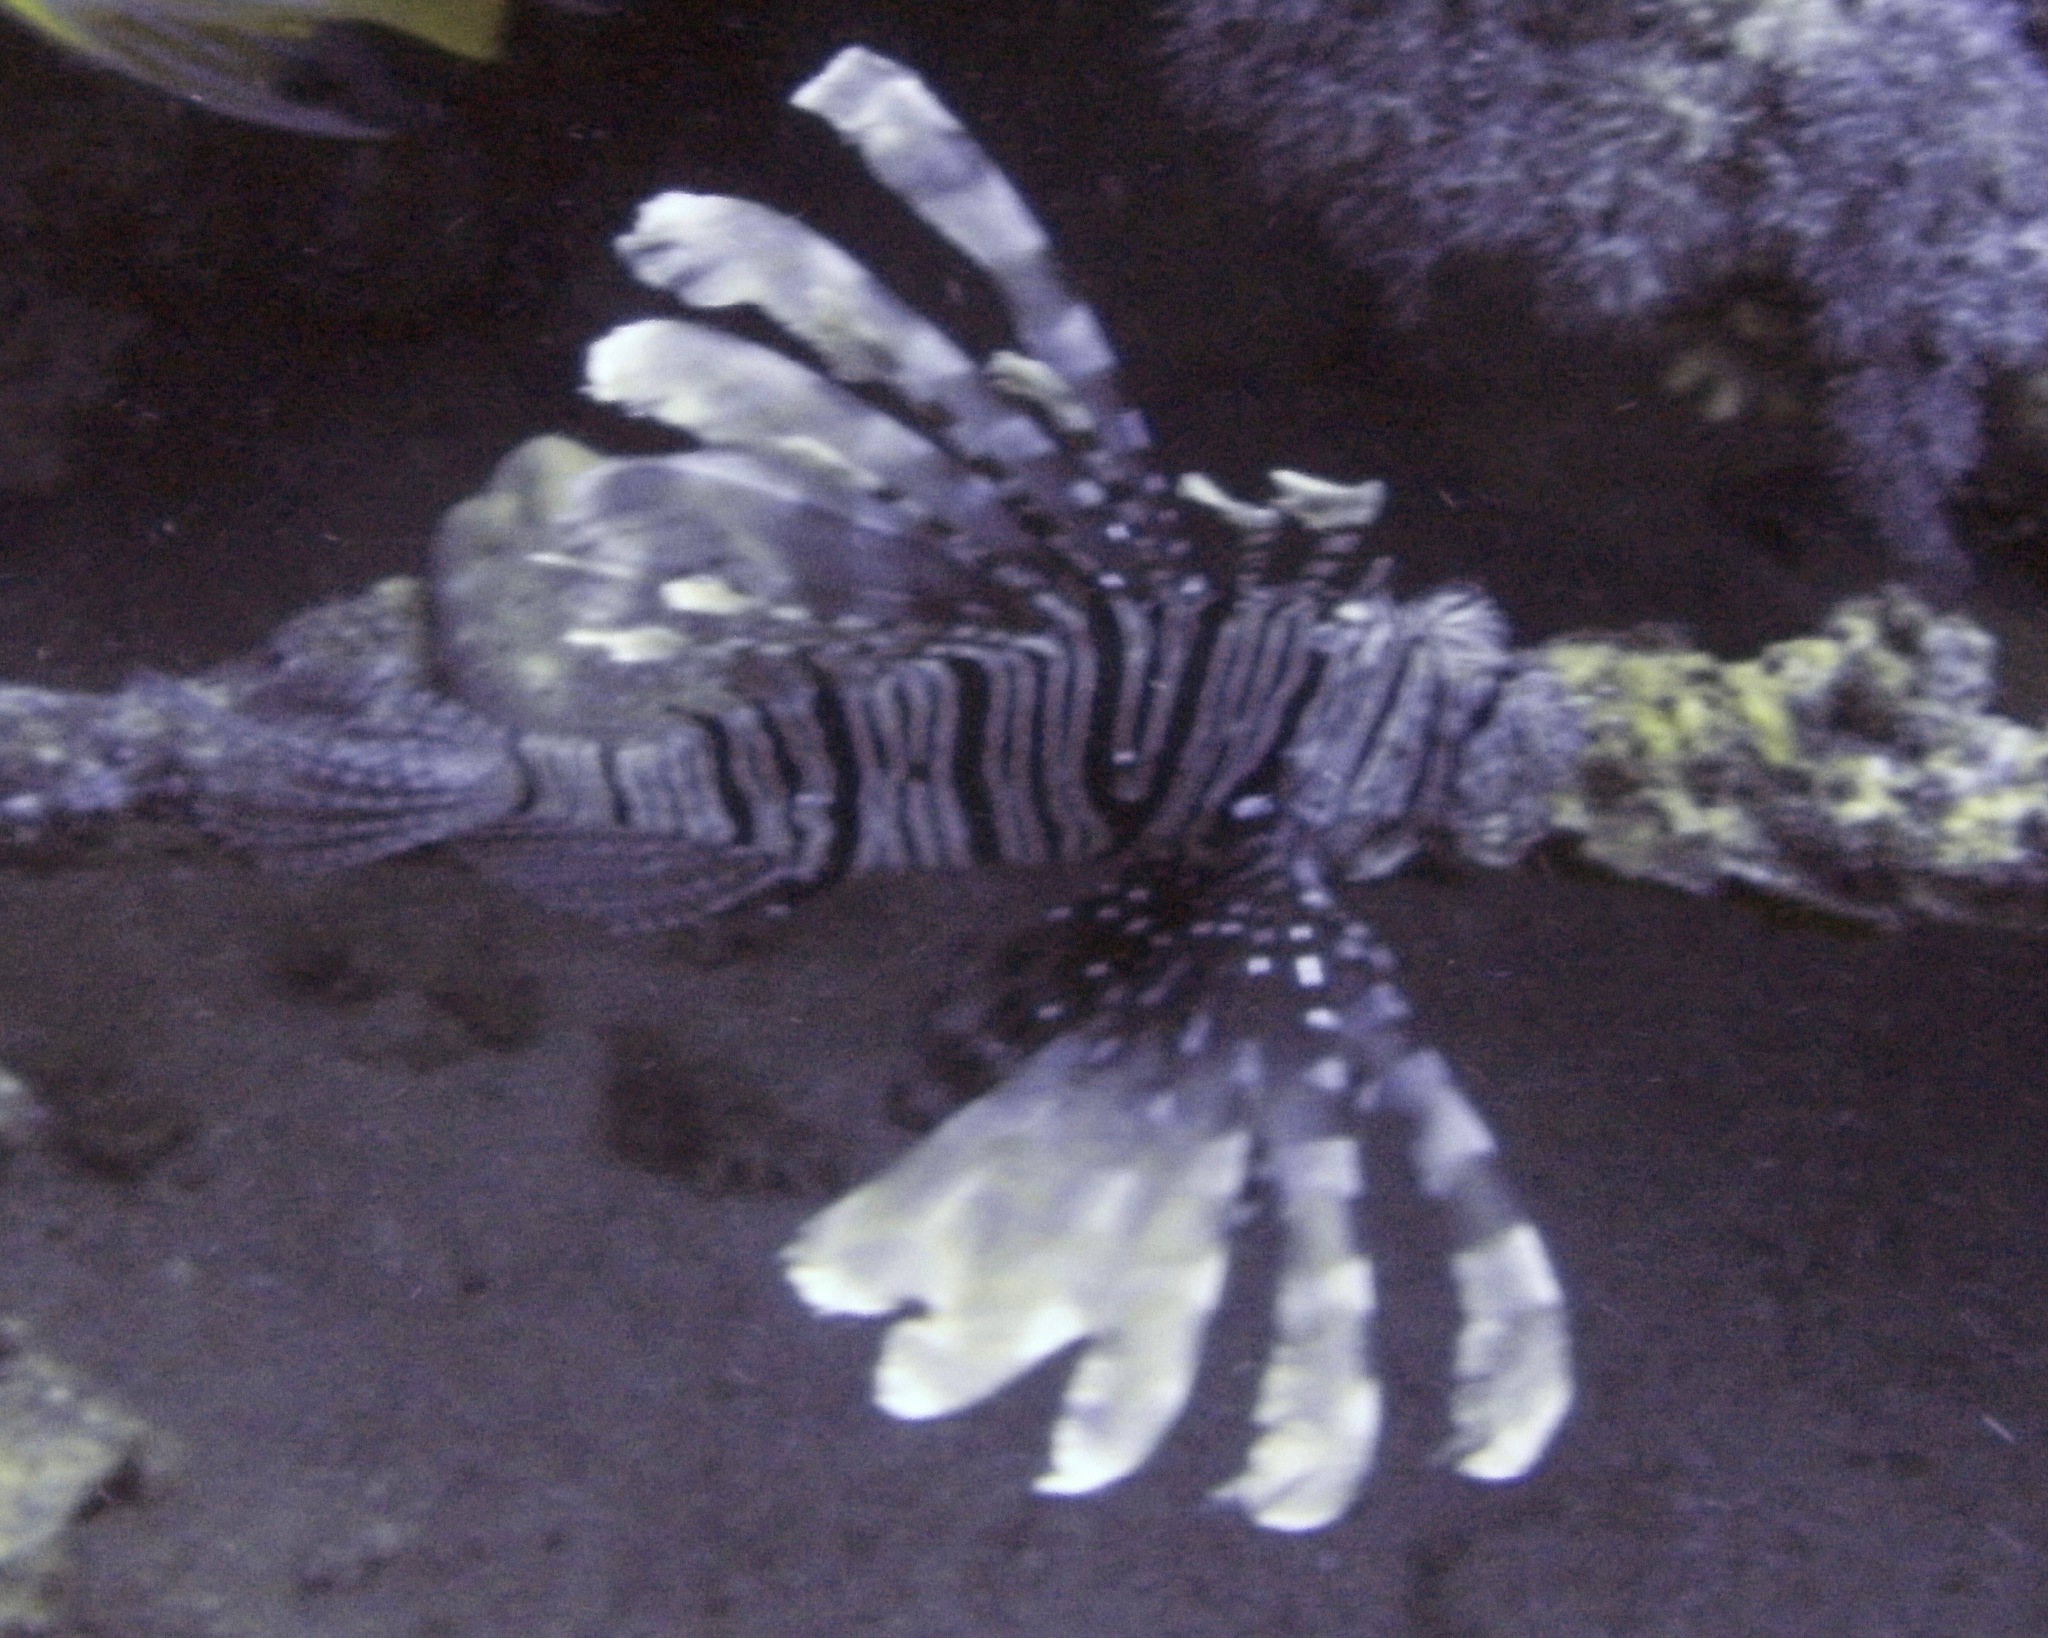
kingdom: Animalia
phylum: Chordata
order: Scorpaeniformes
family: Scorpaenidae
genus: Pterois
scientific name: Pterois miles
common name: Devil firefish
